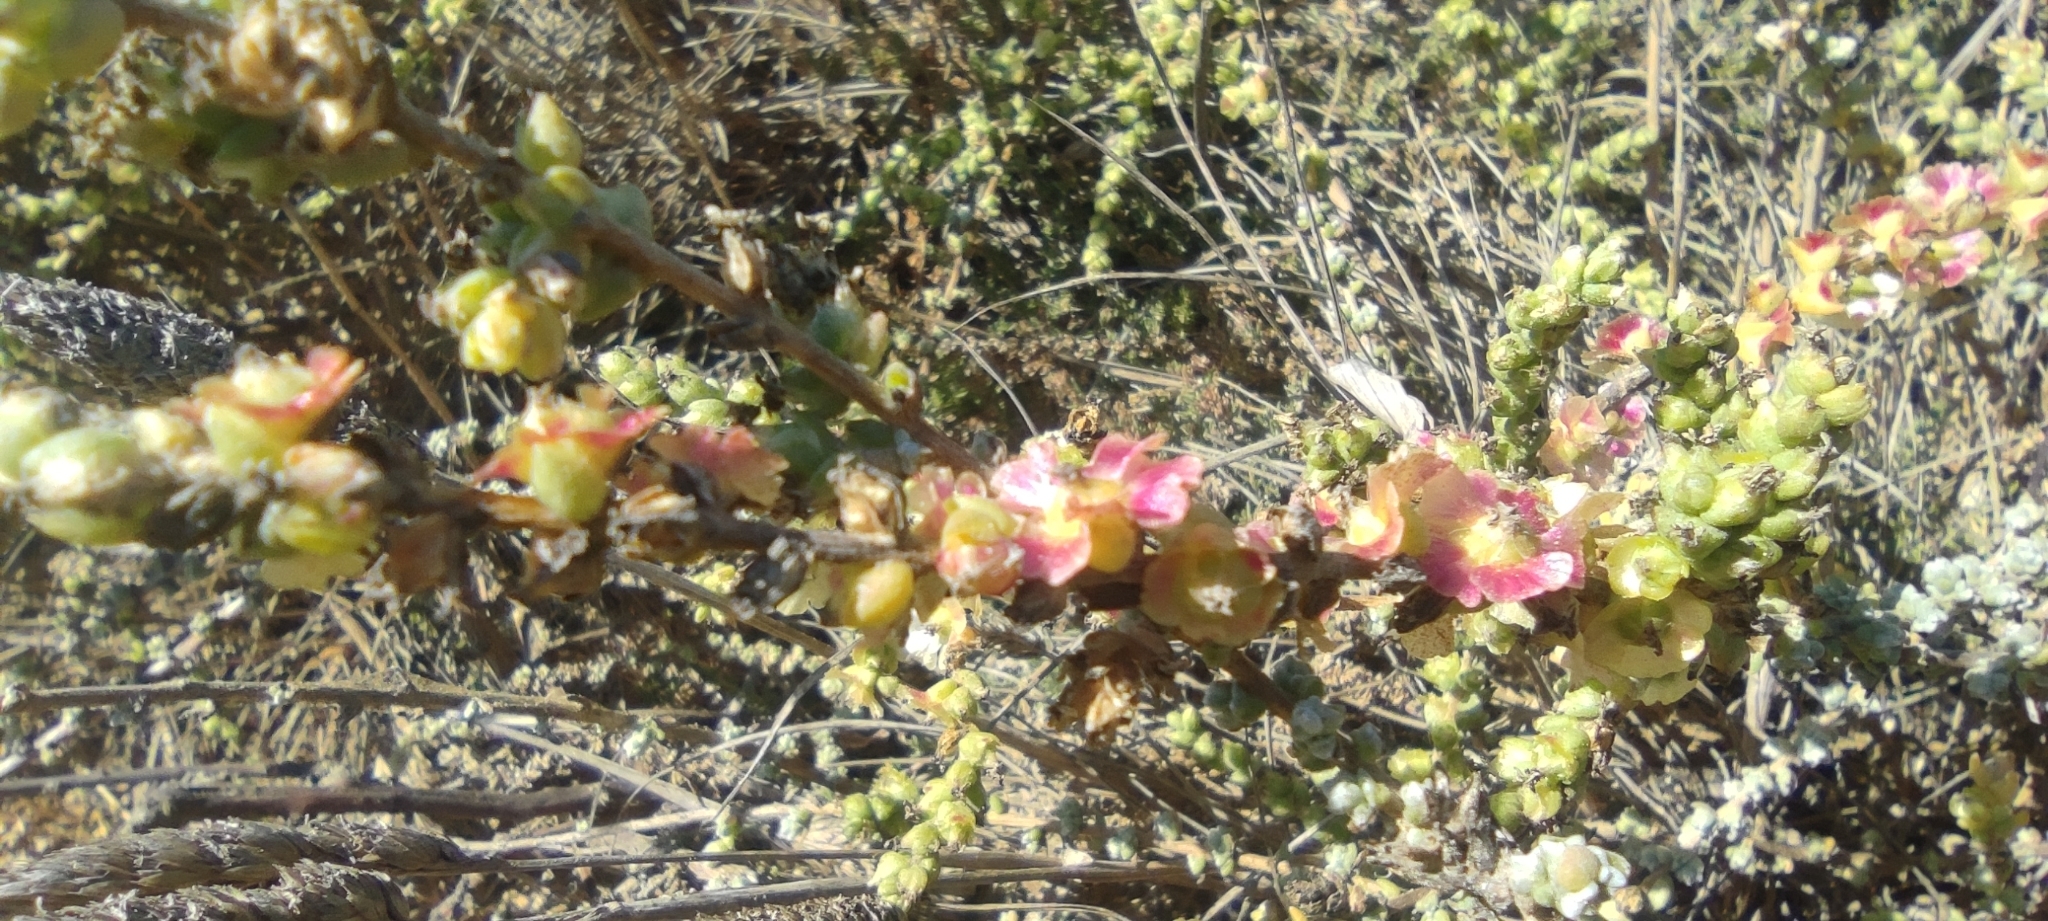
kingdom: Plantae
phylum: Tracheophyta
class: Magnoliopsida
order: Caryophyllales
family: Amaranthaceae
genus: Nitrosalsola
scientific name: Nitrosalsola vermiculata
